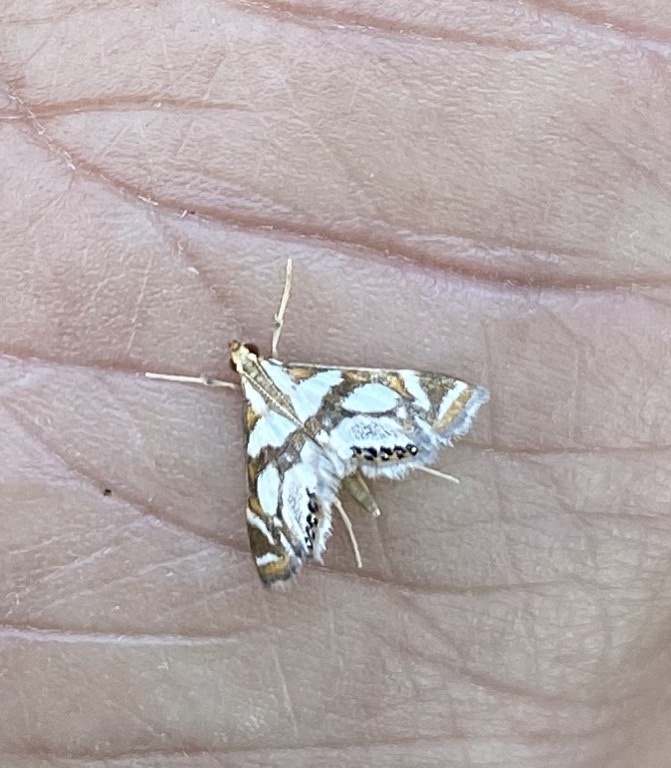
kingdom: Animalia
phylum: Arthropoda
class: Insecta
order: Lepidoptera
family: Crambidae
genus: Chrysendeton
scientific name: Chrysendeton medicinalis
